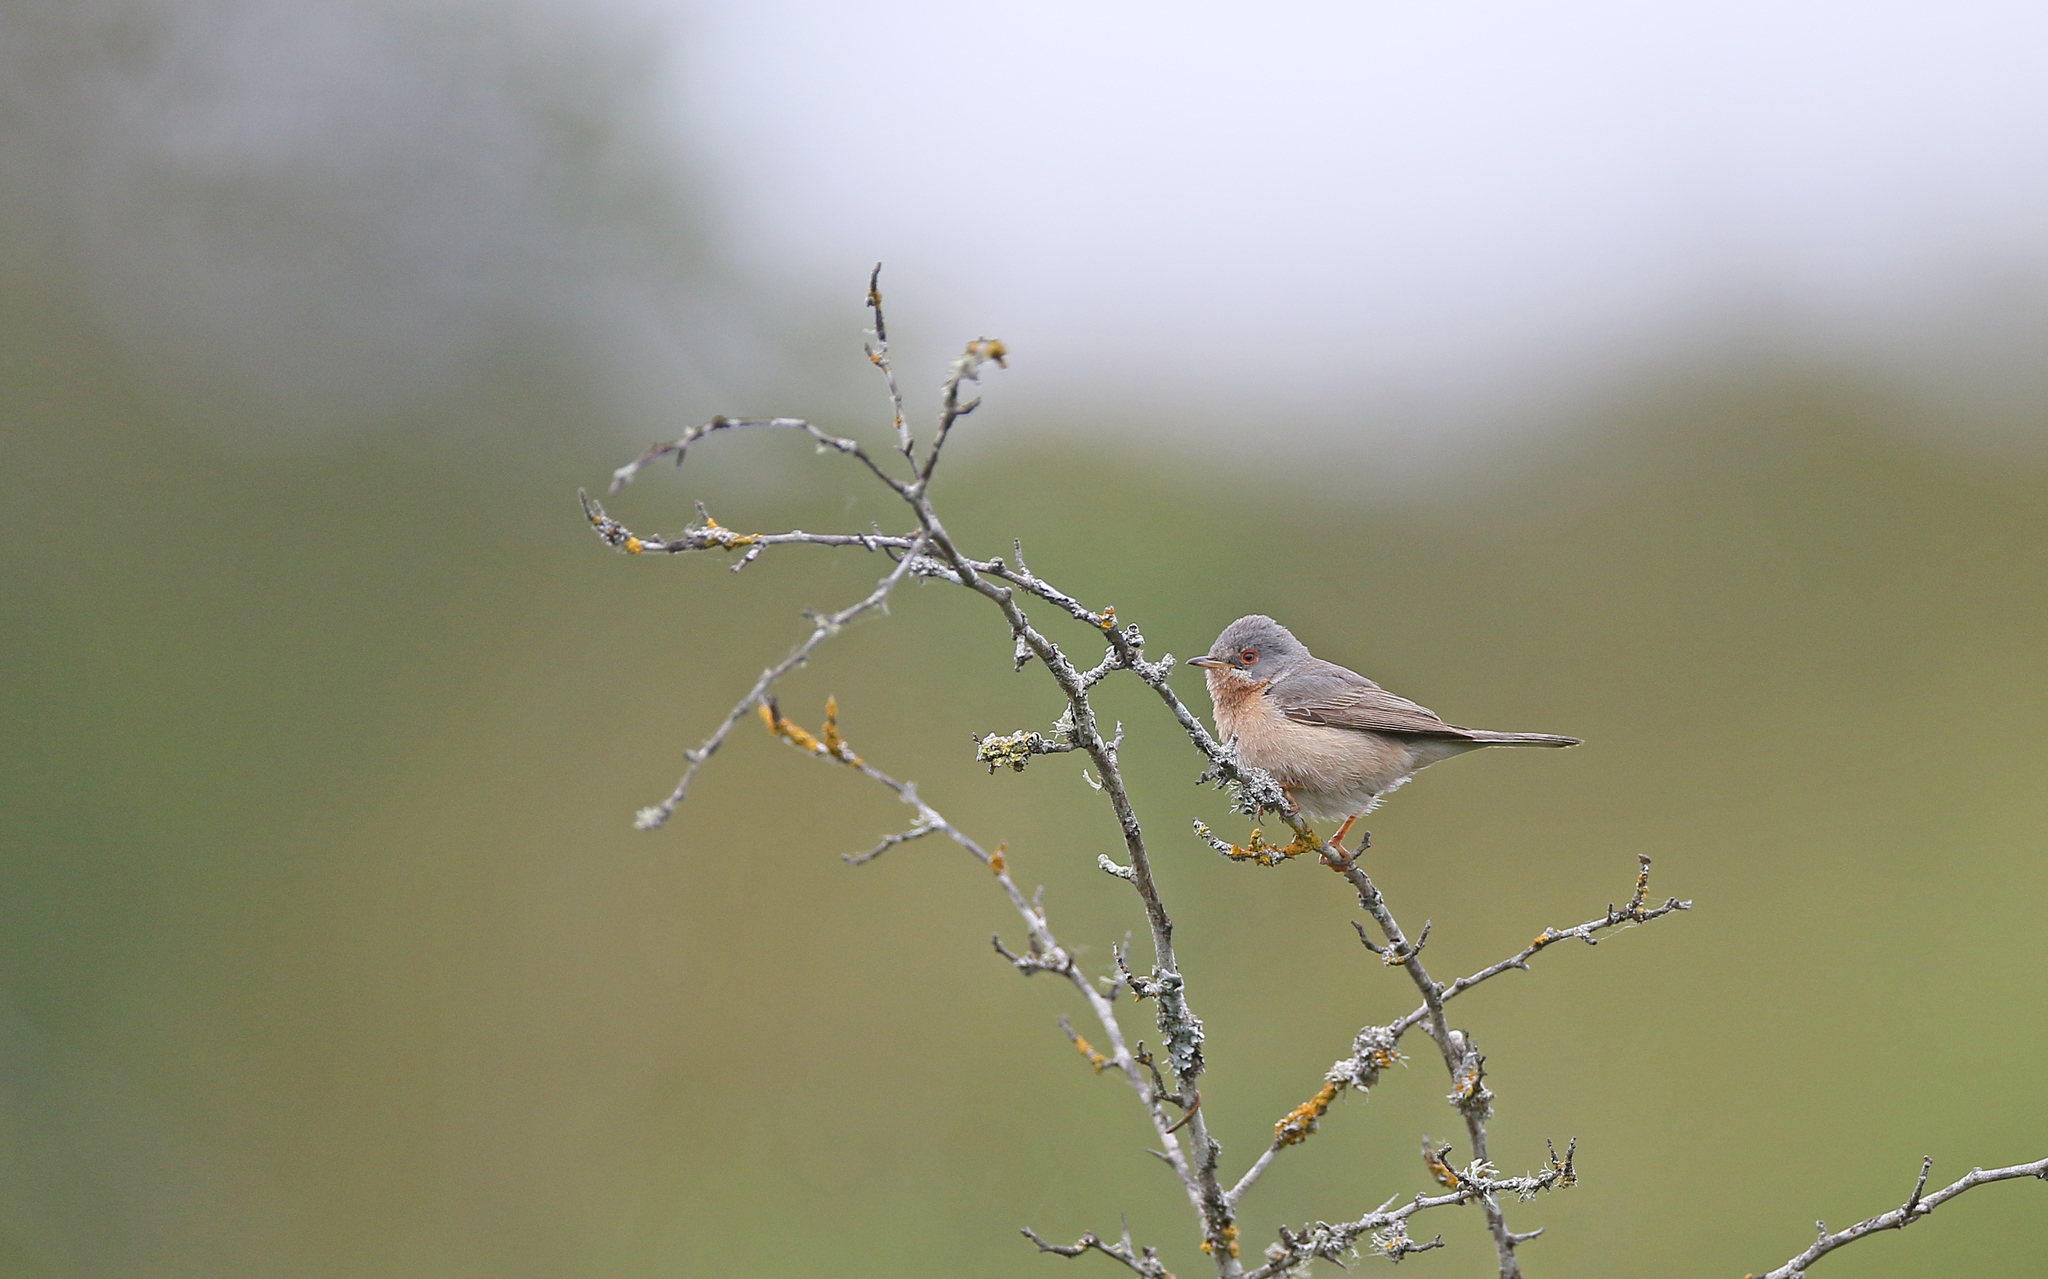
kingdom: Animalia
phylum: Chordata
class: Aves
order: Passeriformes
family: Sylviidae
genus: Curruca
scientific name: Curruca iberiae
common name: Western subalpine warbler
